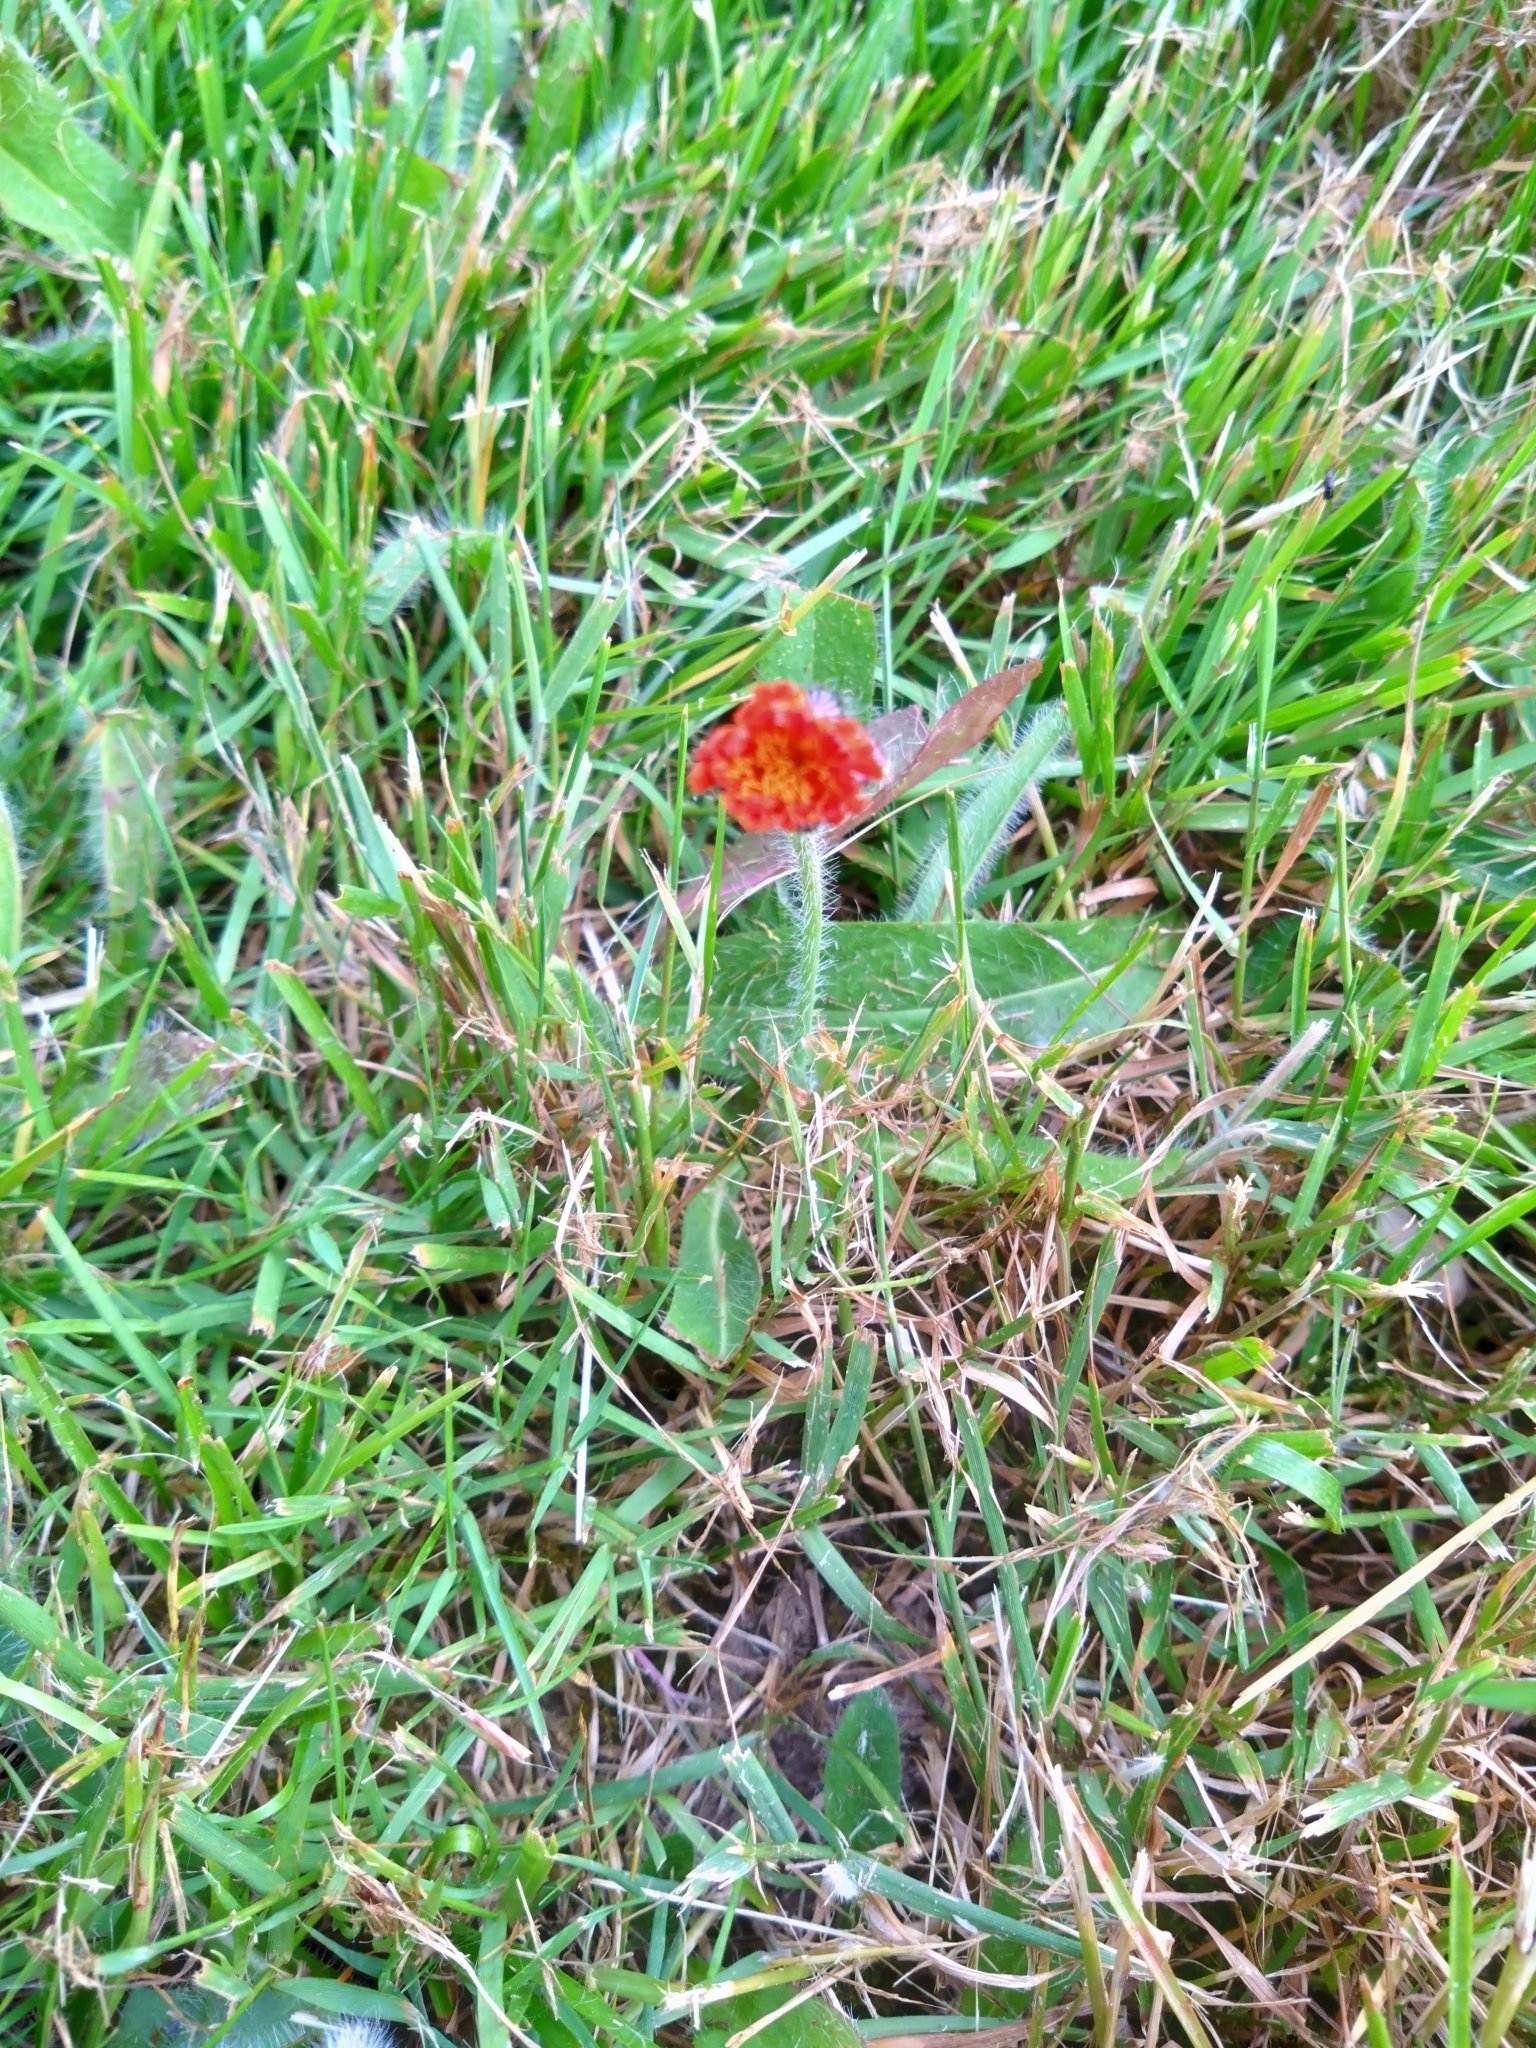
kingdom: Plantae
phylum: Tracheophyta
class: Magnoliopsida
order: Asterales
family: Asteraceae
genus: Pilosella
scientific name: Pilosella aurantiaca
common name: Fox-and-cubs
